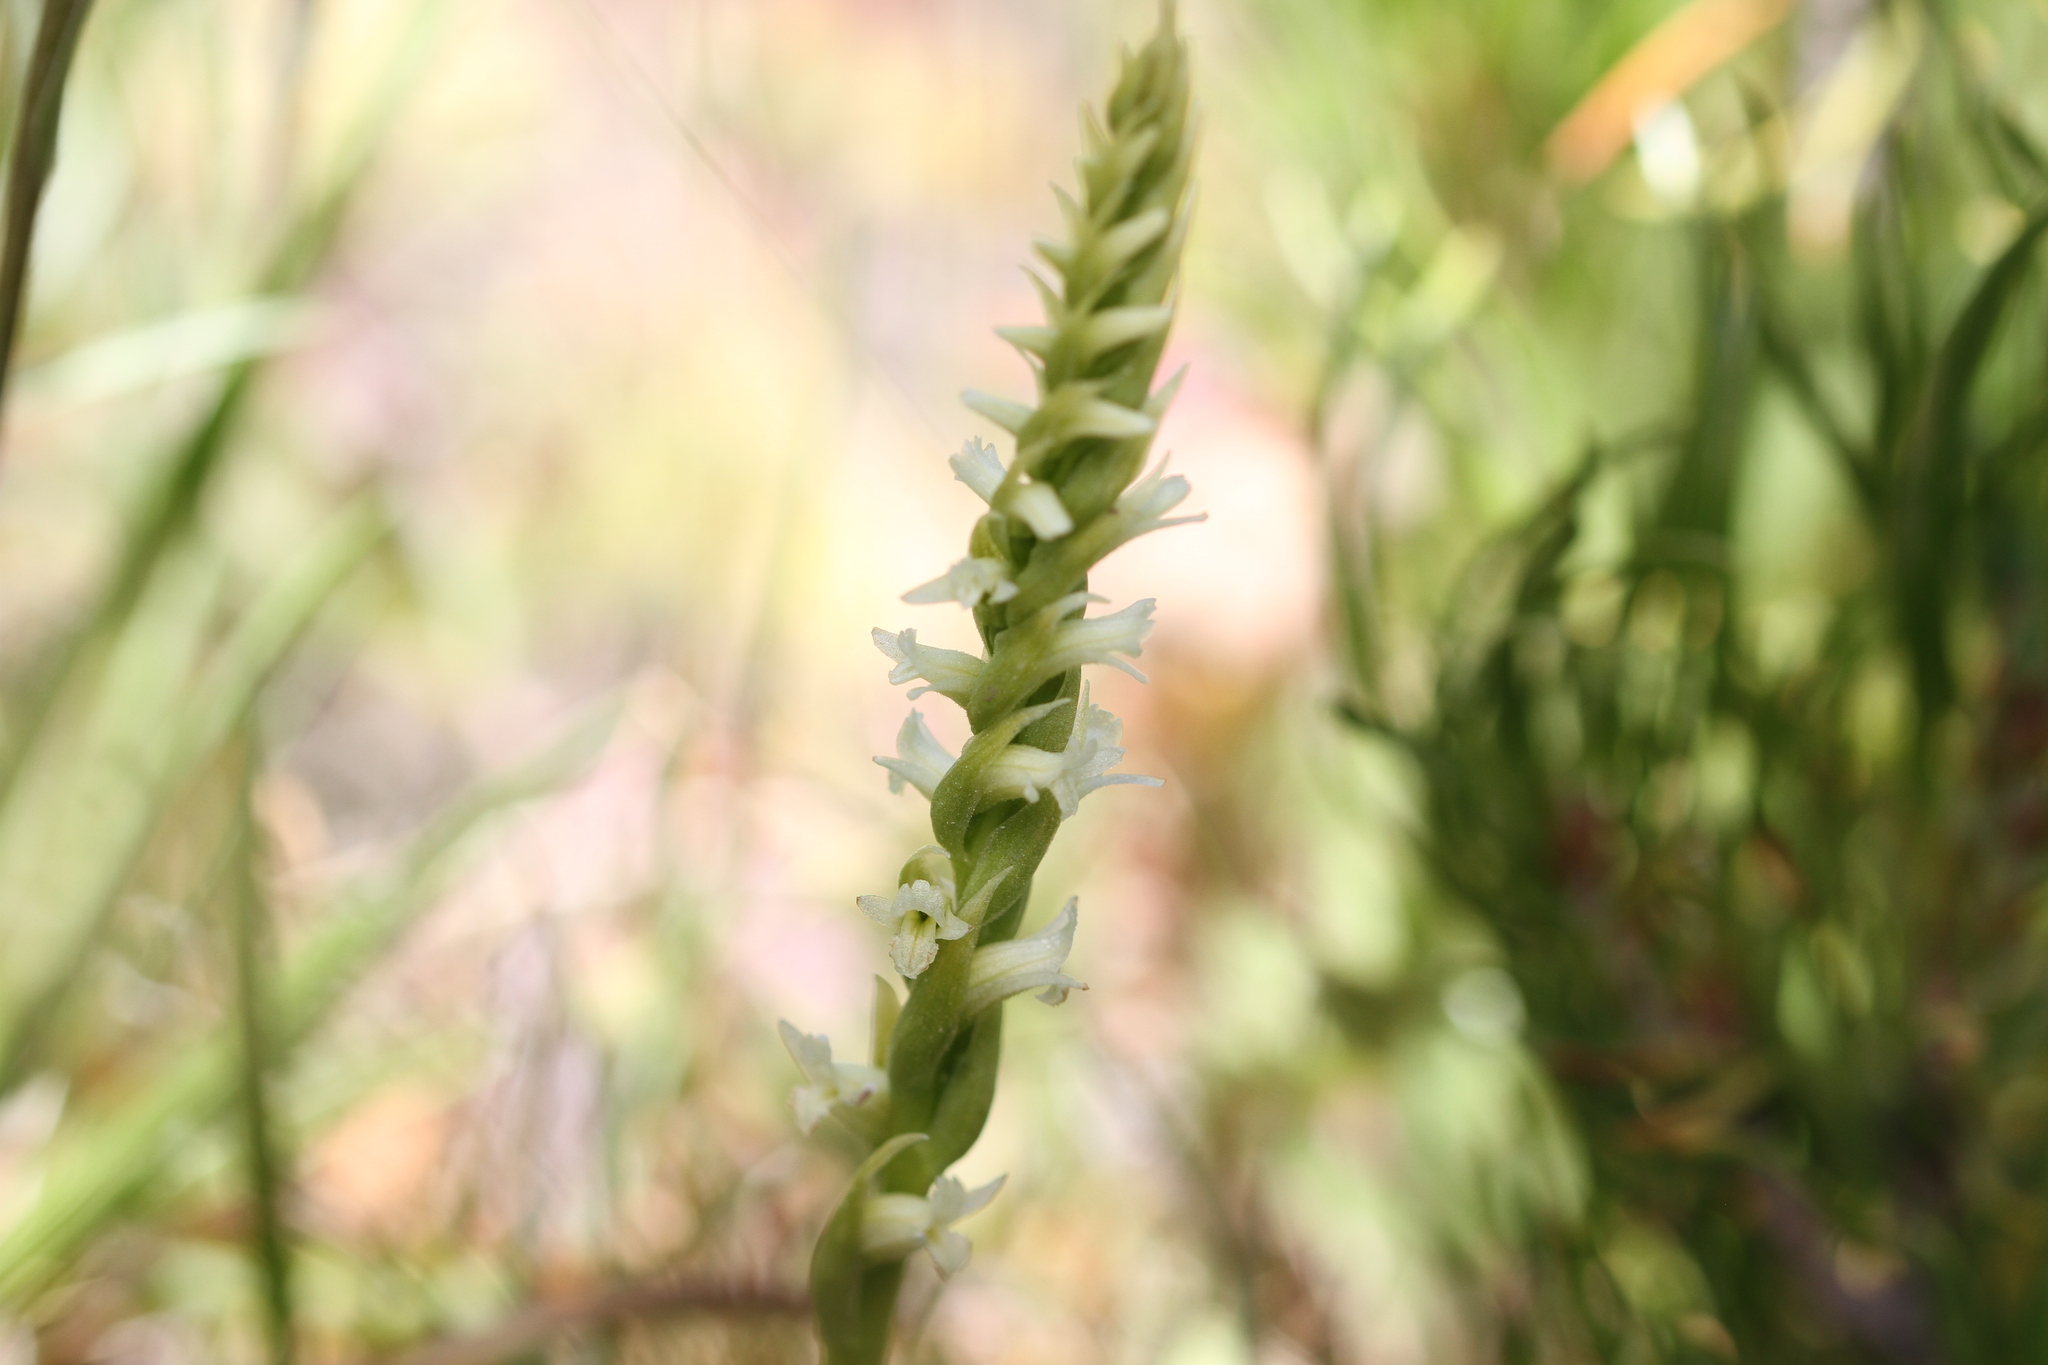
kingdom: Plantae
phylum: Tracheophyta
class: Liliopsida
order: Asparagales
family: Orchidaceae
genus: Spiranthes
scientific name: Spiranthes stellata
